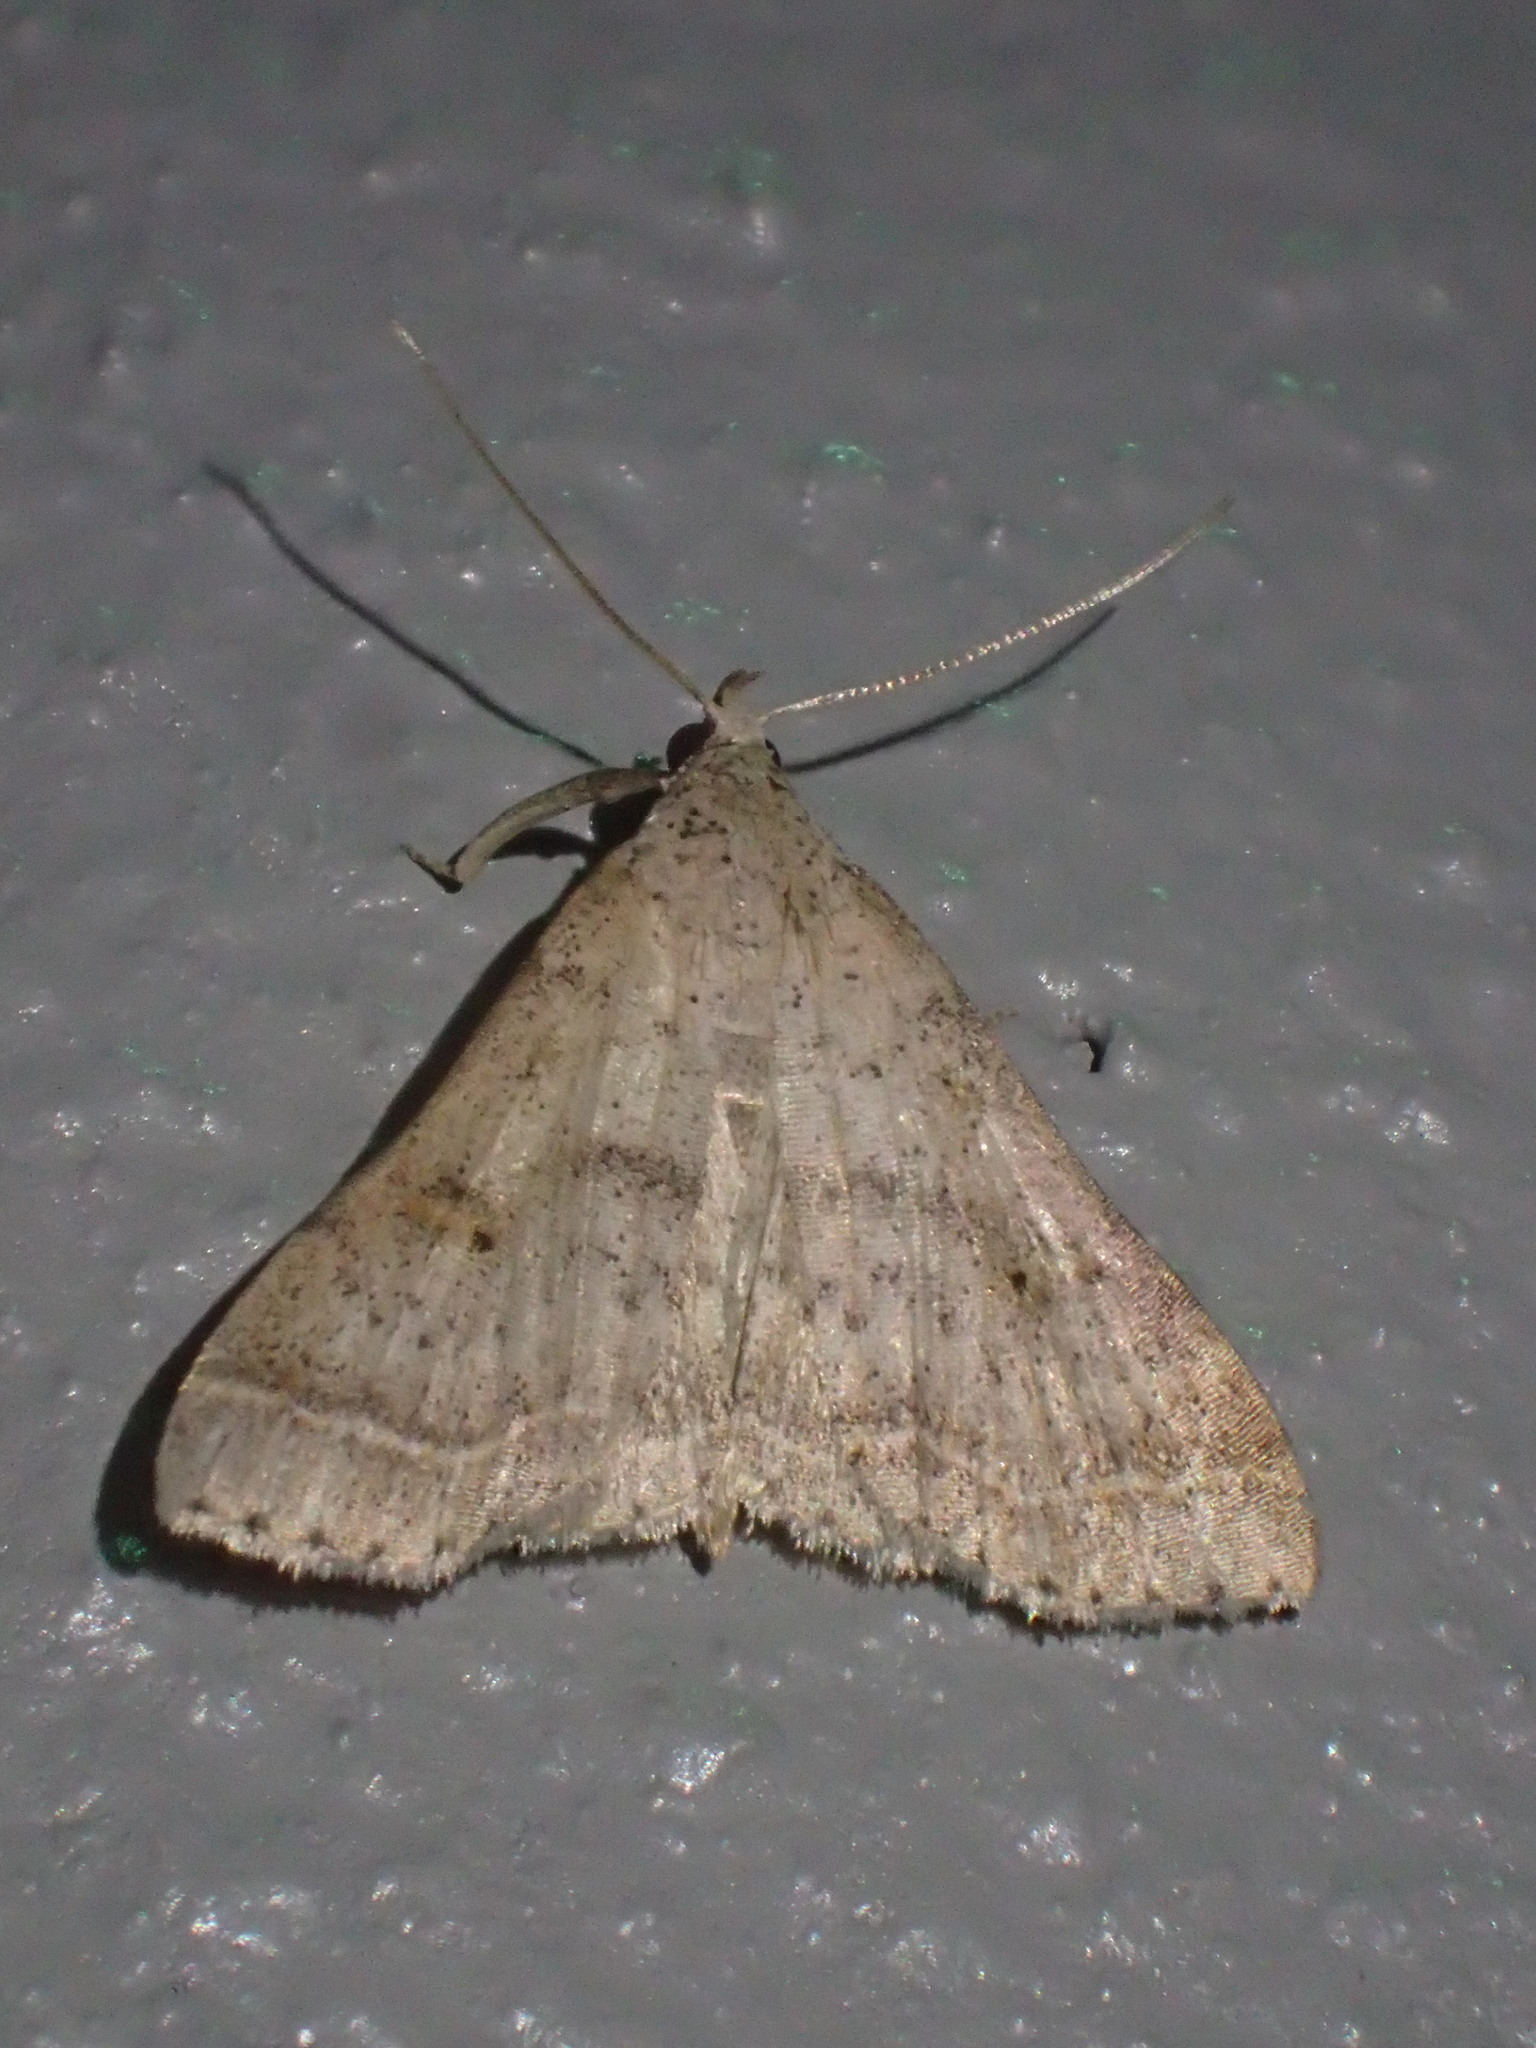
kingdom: Animalia
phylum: Arthropoda
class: Insecta
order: Lepidoptera
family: Erebidae
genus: Bleptina
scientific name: Bleptina caradrinalis
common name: Bent-winged owlet
